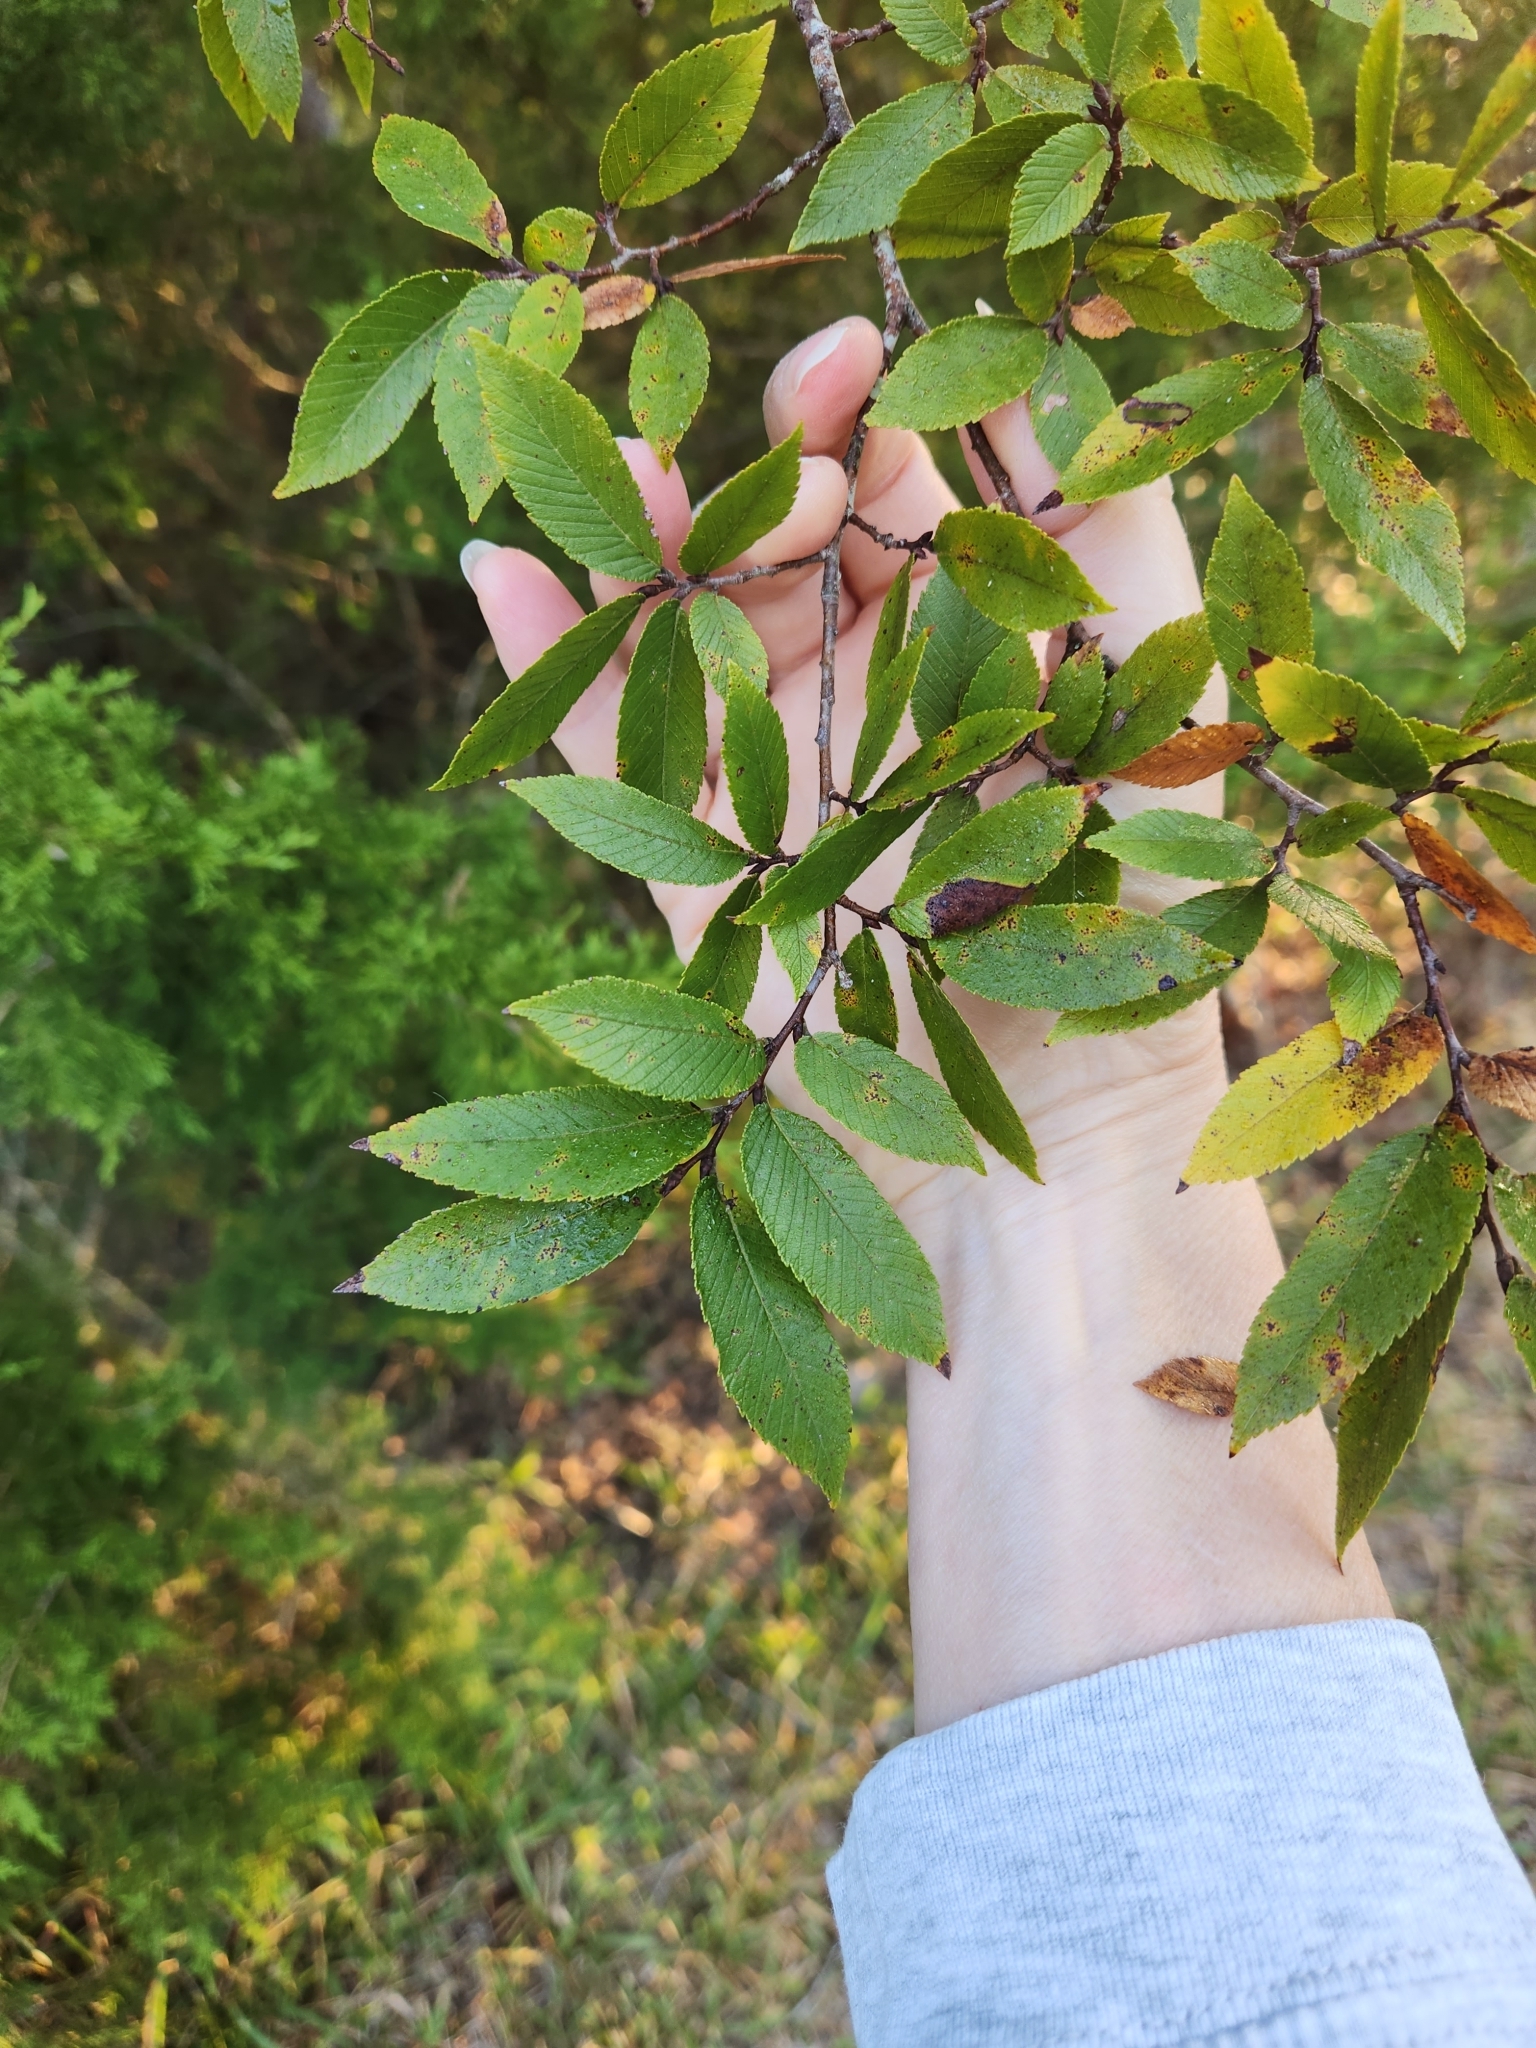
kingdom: Plantae
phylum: Tracheophyta
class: Magnoliopsida
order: Rosales
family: Ulmaceae
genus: Ulmus
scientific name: Ulmus alata
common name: Winged elm
